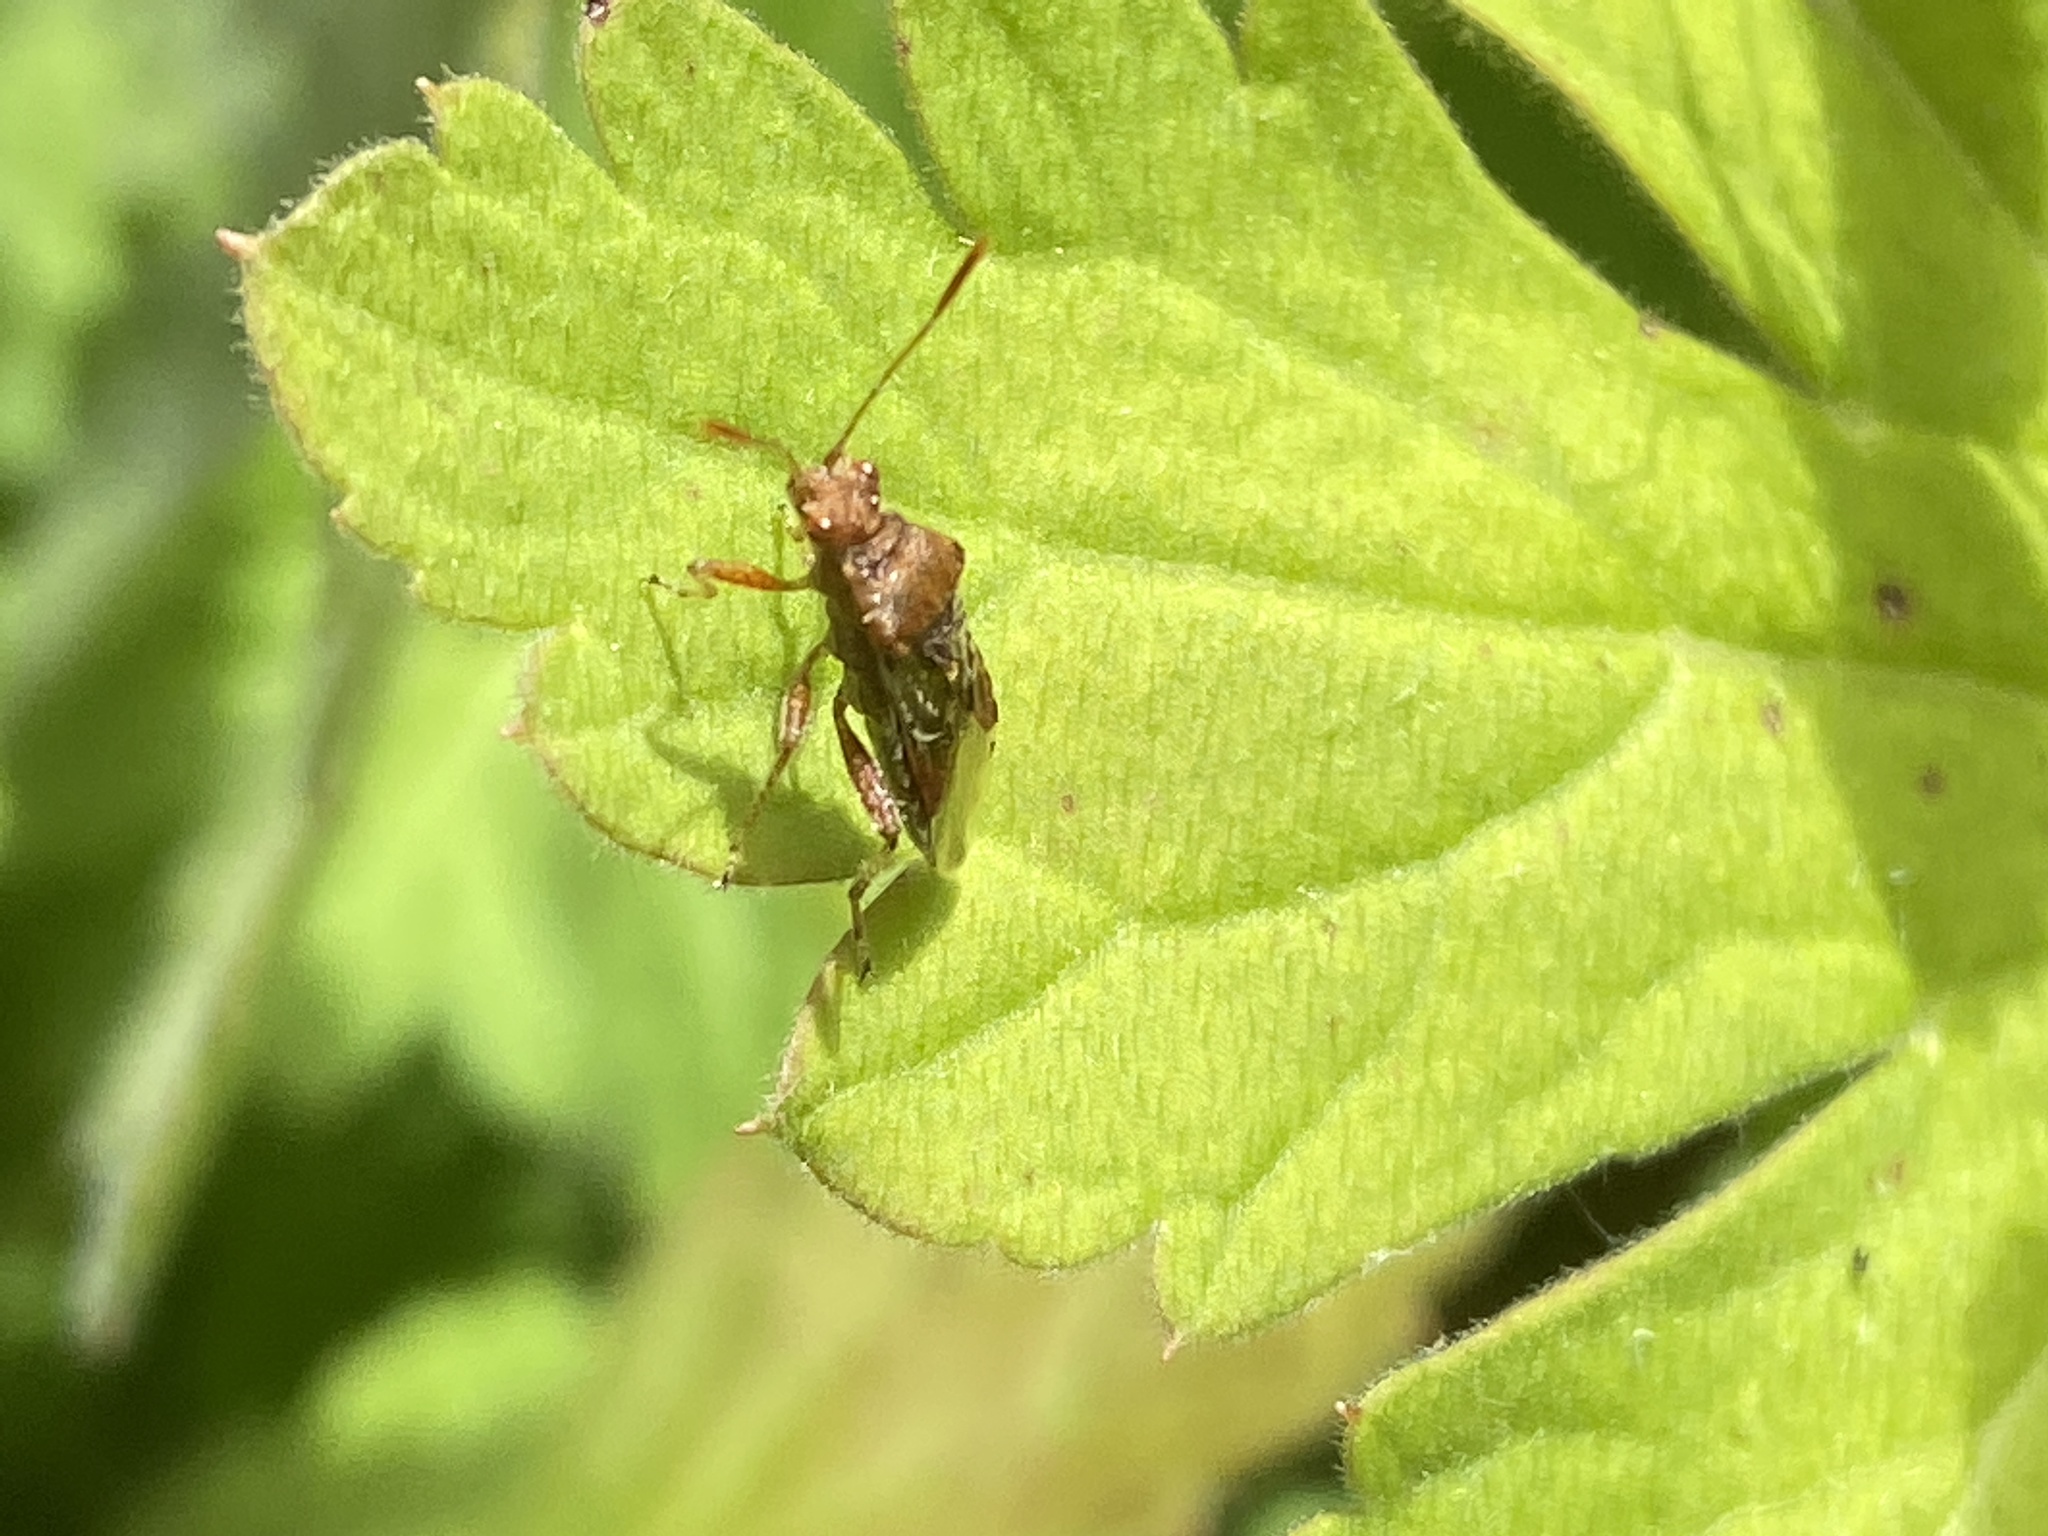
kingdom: Animalia
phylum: Arthropoda
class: Insecta
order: Hemiptera
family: Rhopalidae
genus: Rhopalus
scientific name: Rhopalus subrufus
